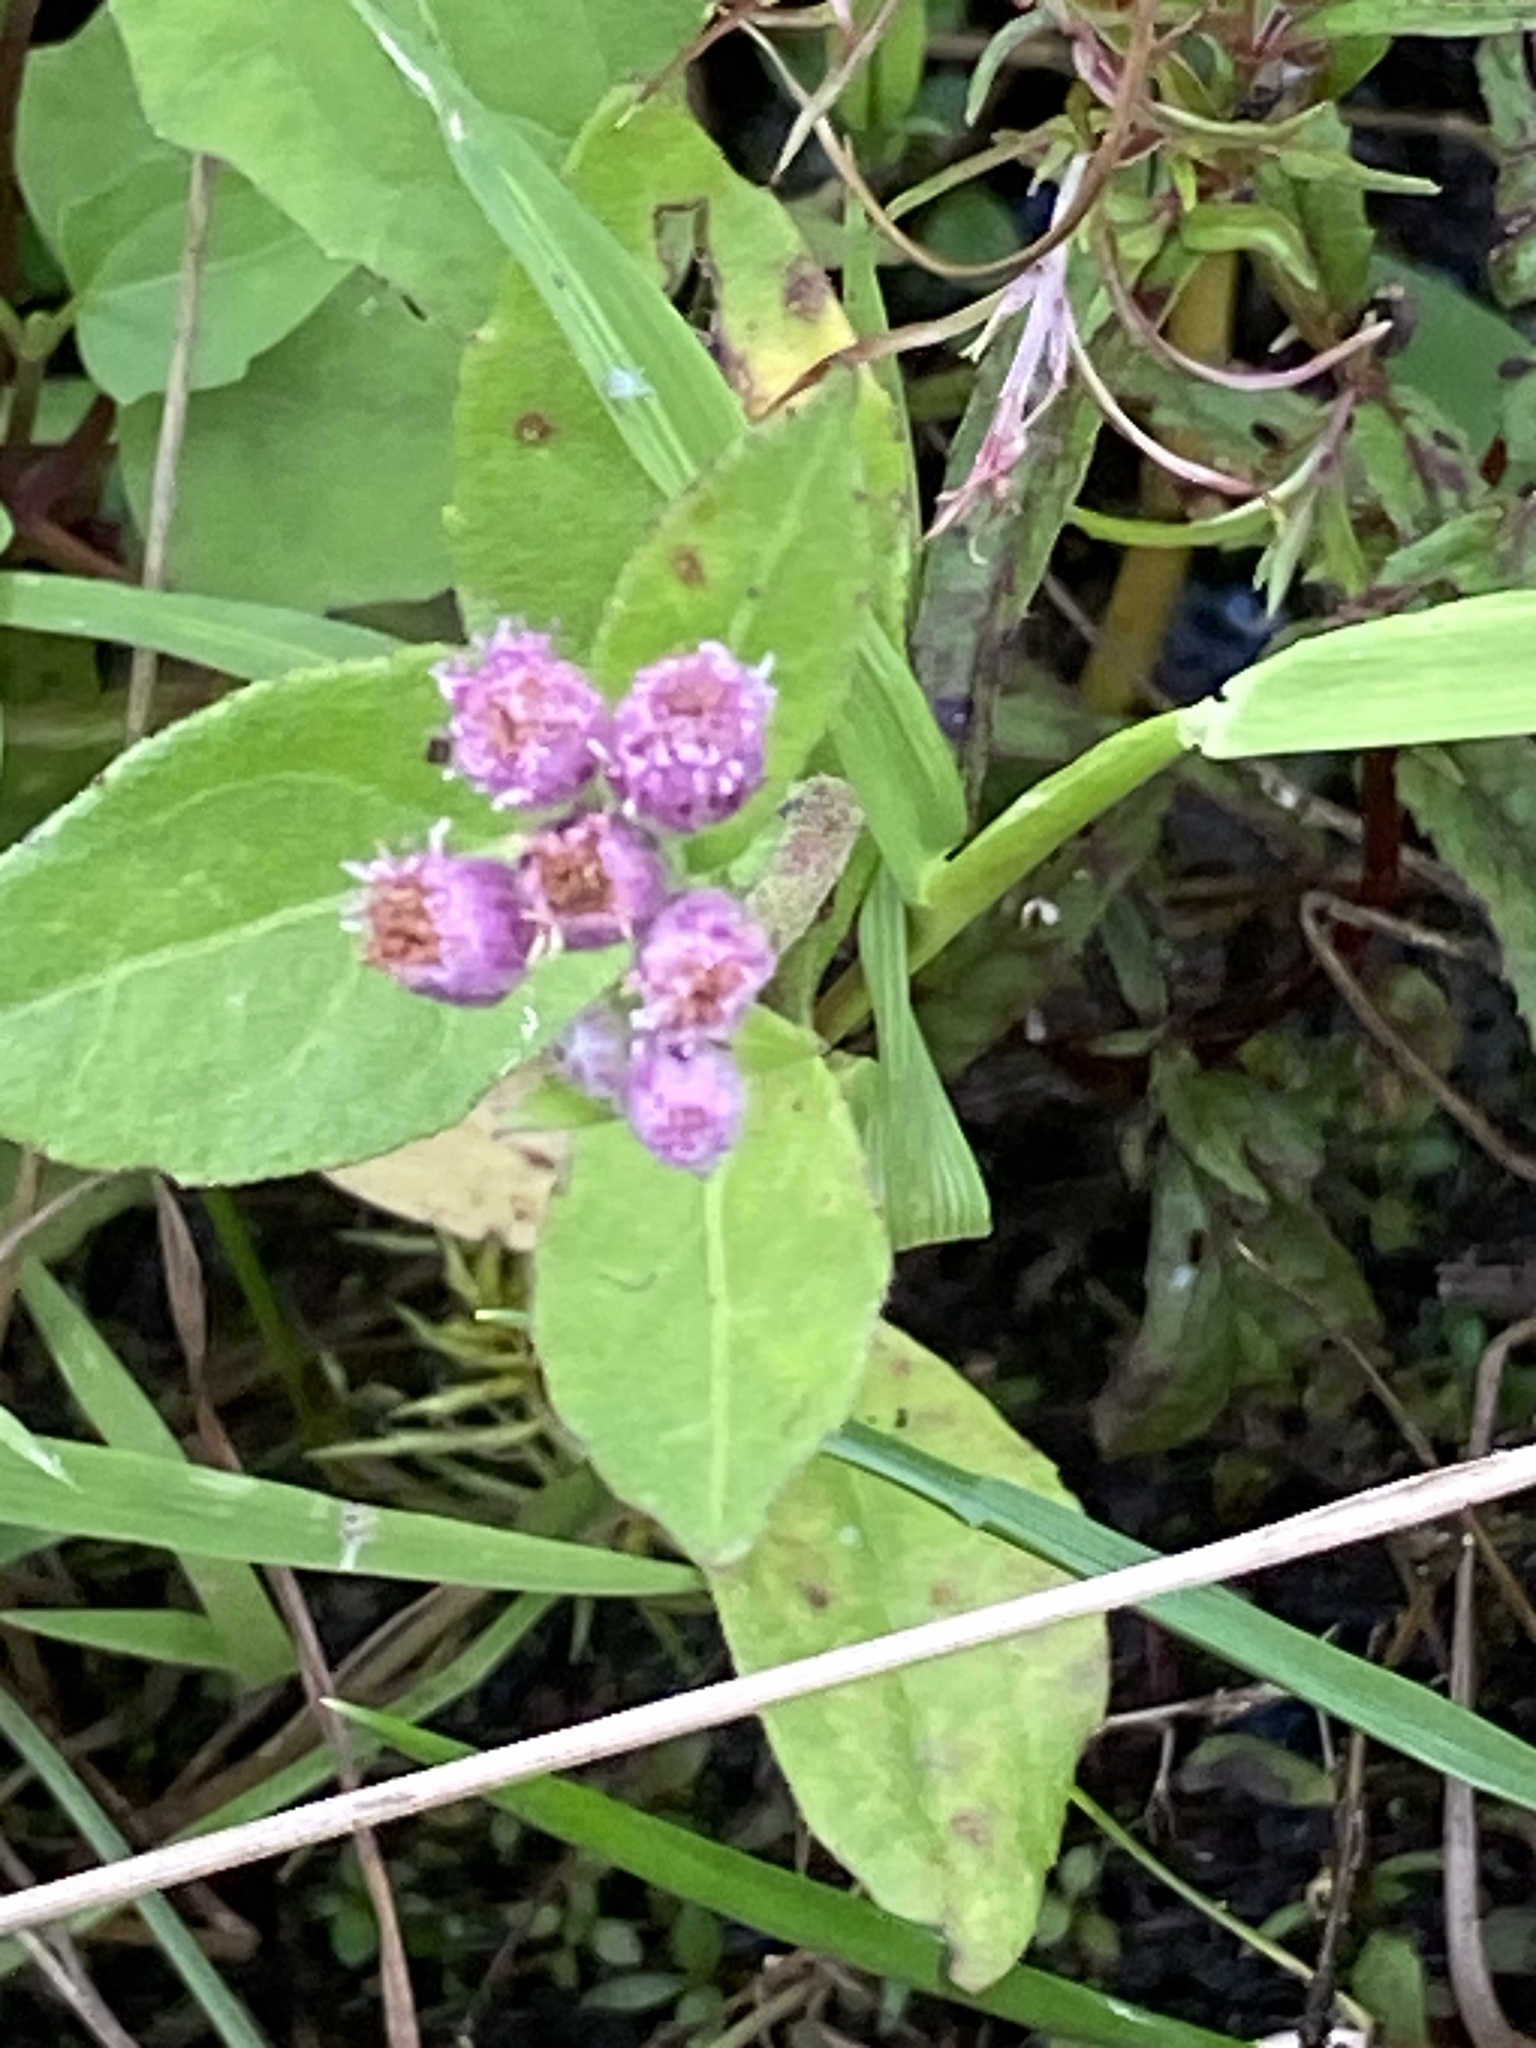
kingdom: Plantae
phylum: Tracheophyta
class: Magnoliopsida
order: Asterales
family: Asteraceae
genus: Pluchea
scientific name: Pluchea odorata
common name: Saltmarsh fleabane
